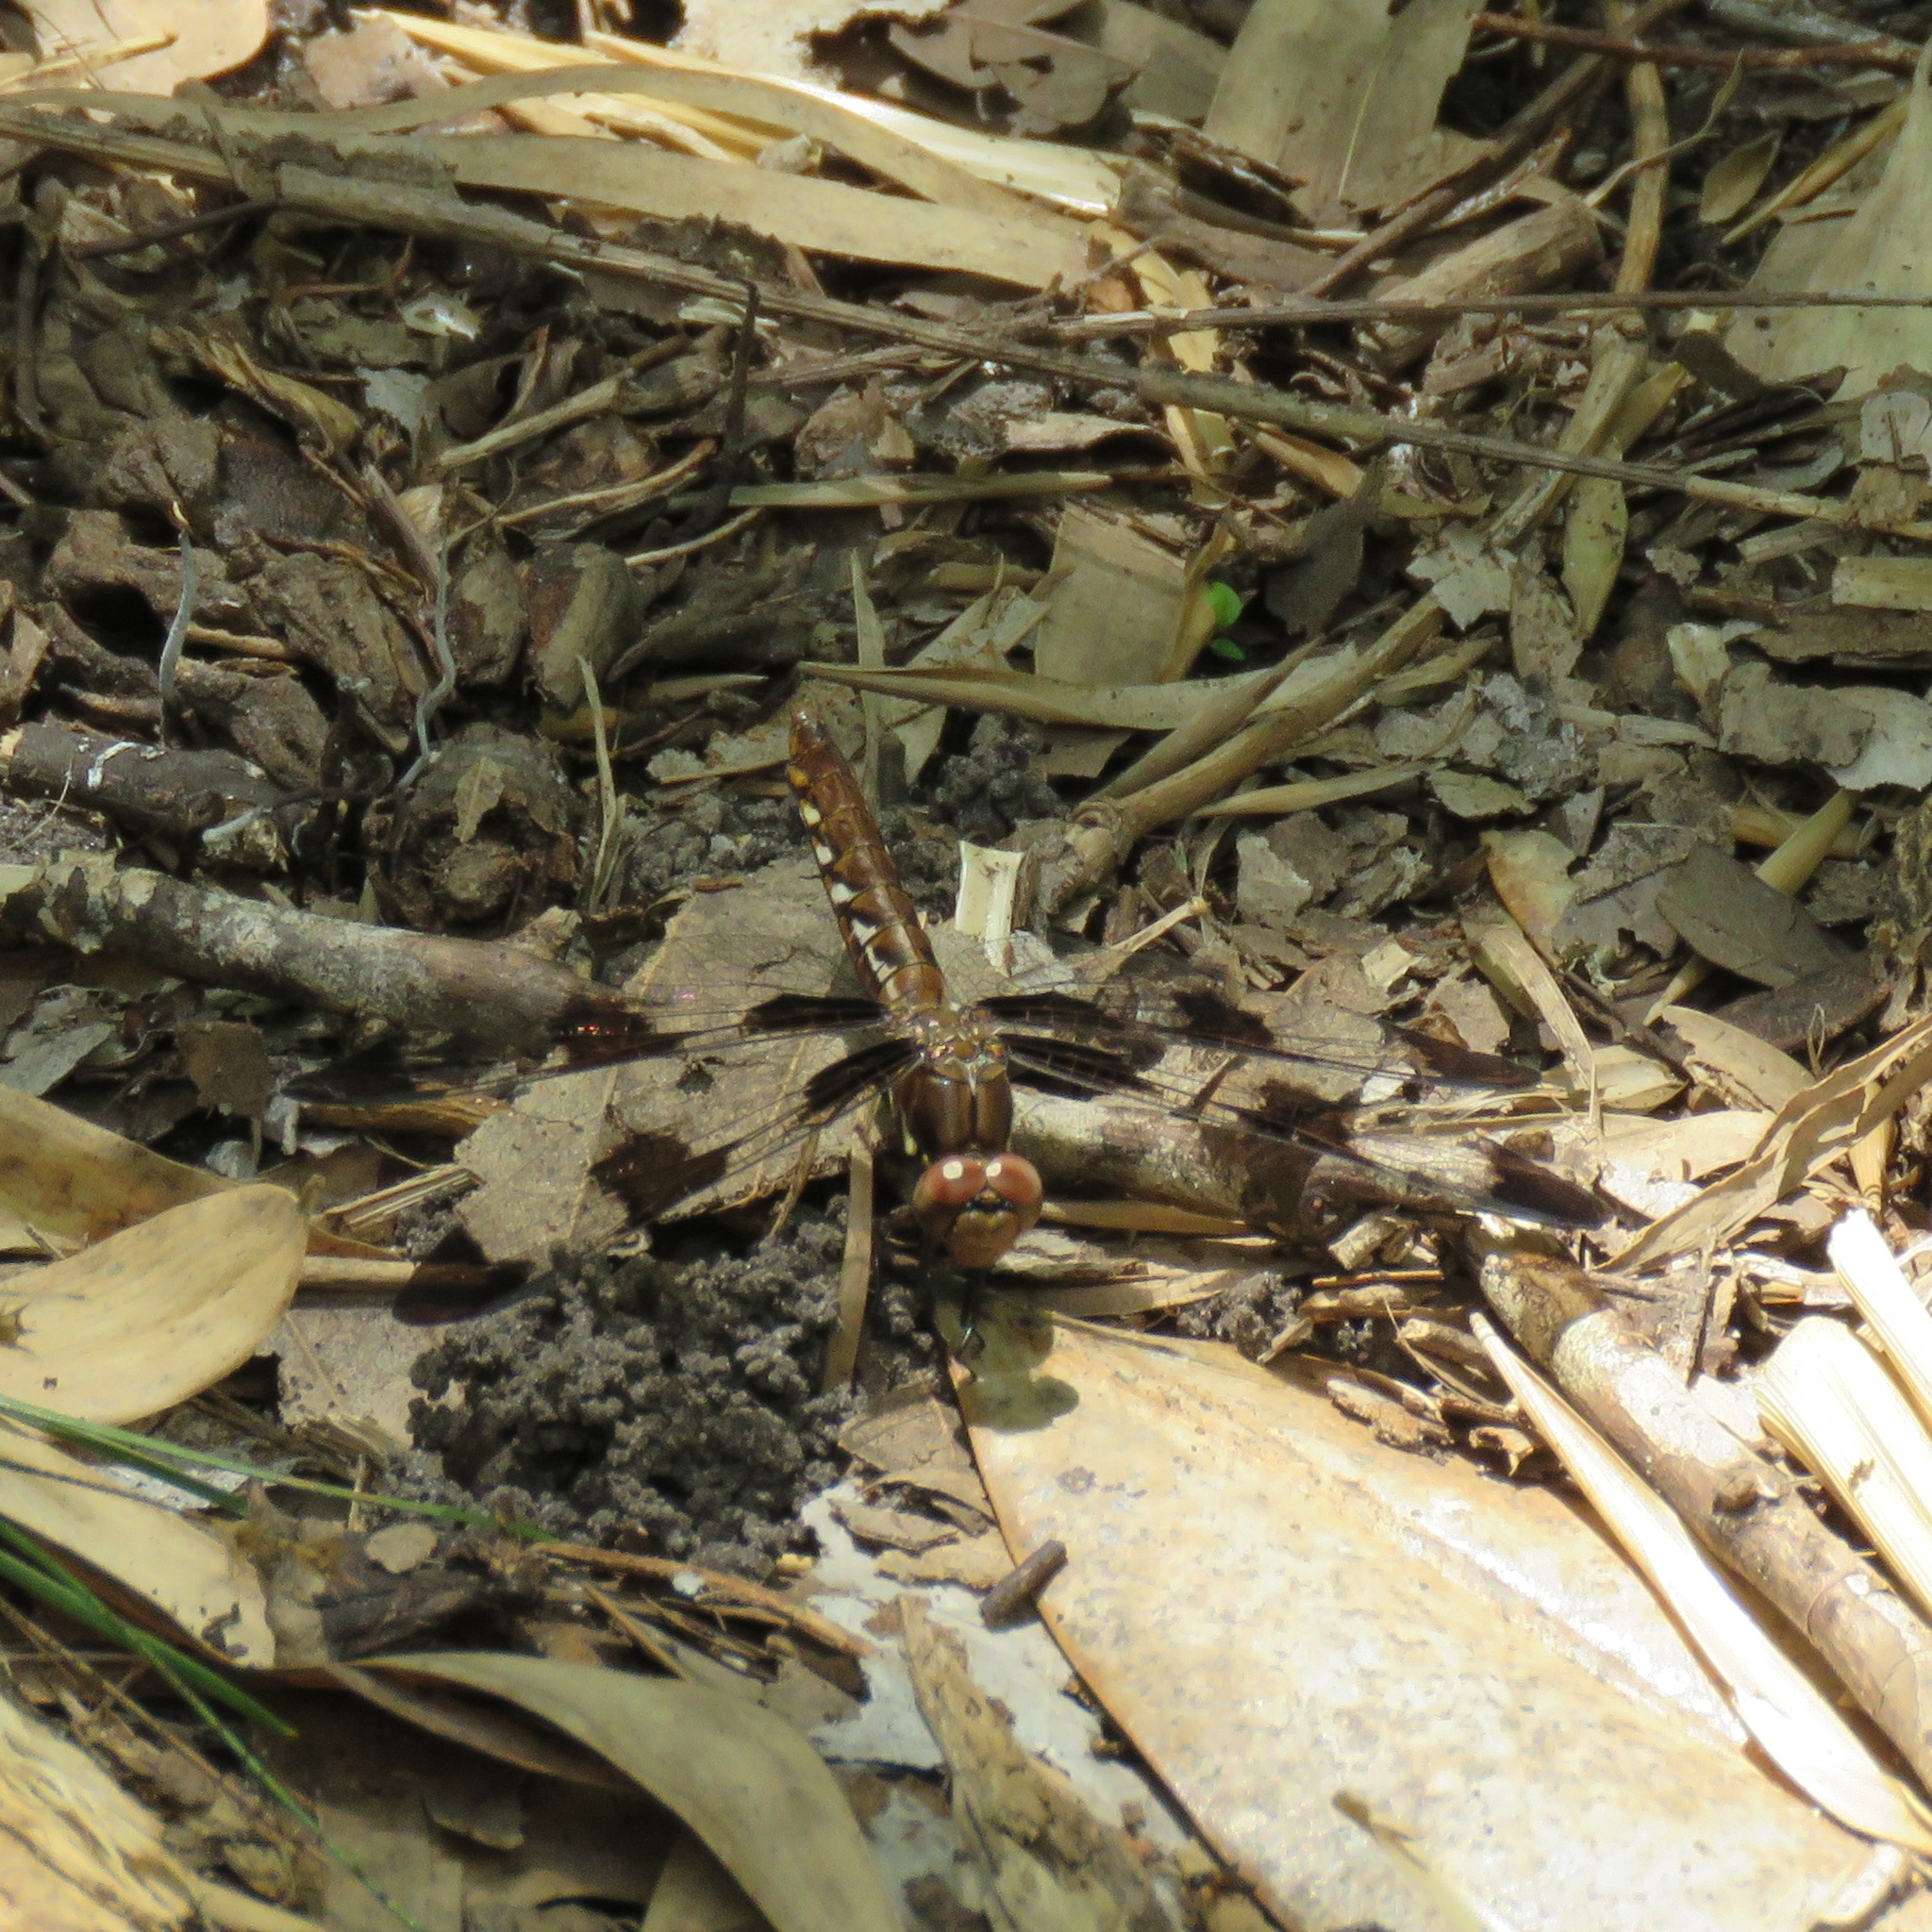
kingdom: Animalia
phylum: Arthropoda
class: Insecta
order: Odonata
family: Libellulidae
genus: Plathemis
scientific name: Plathemis lydia
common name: Common whitetail
